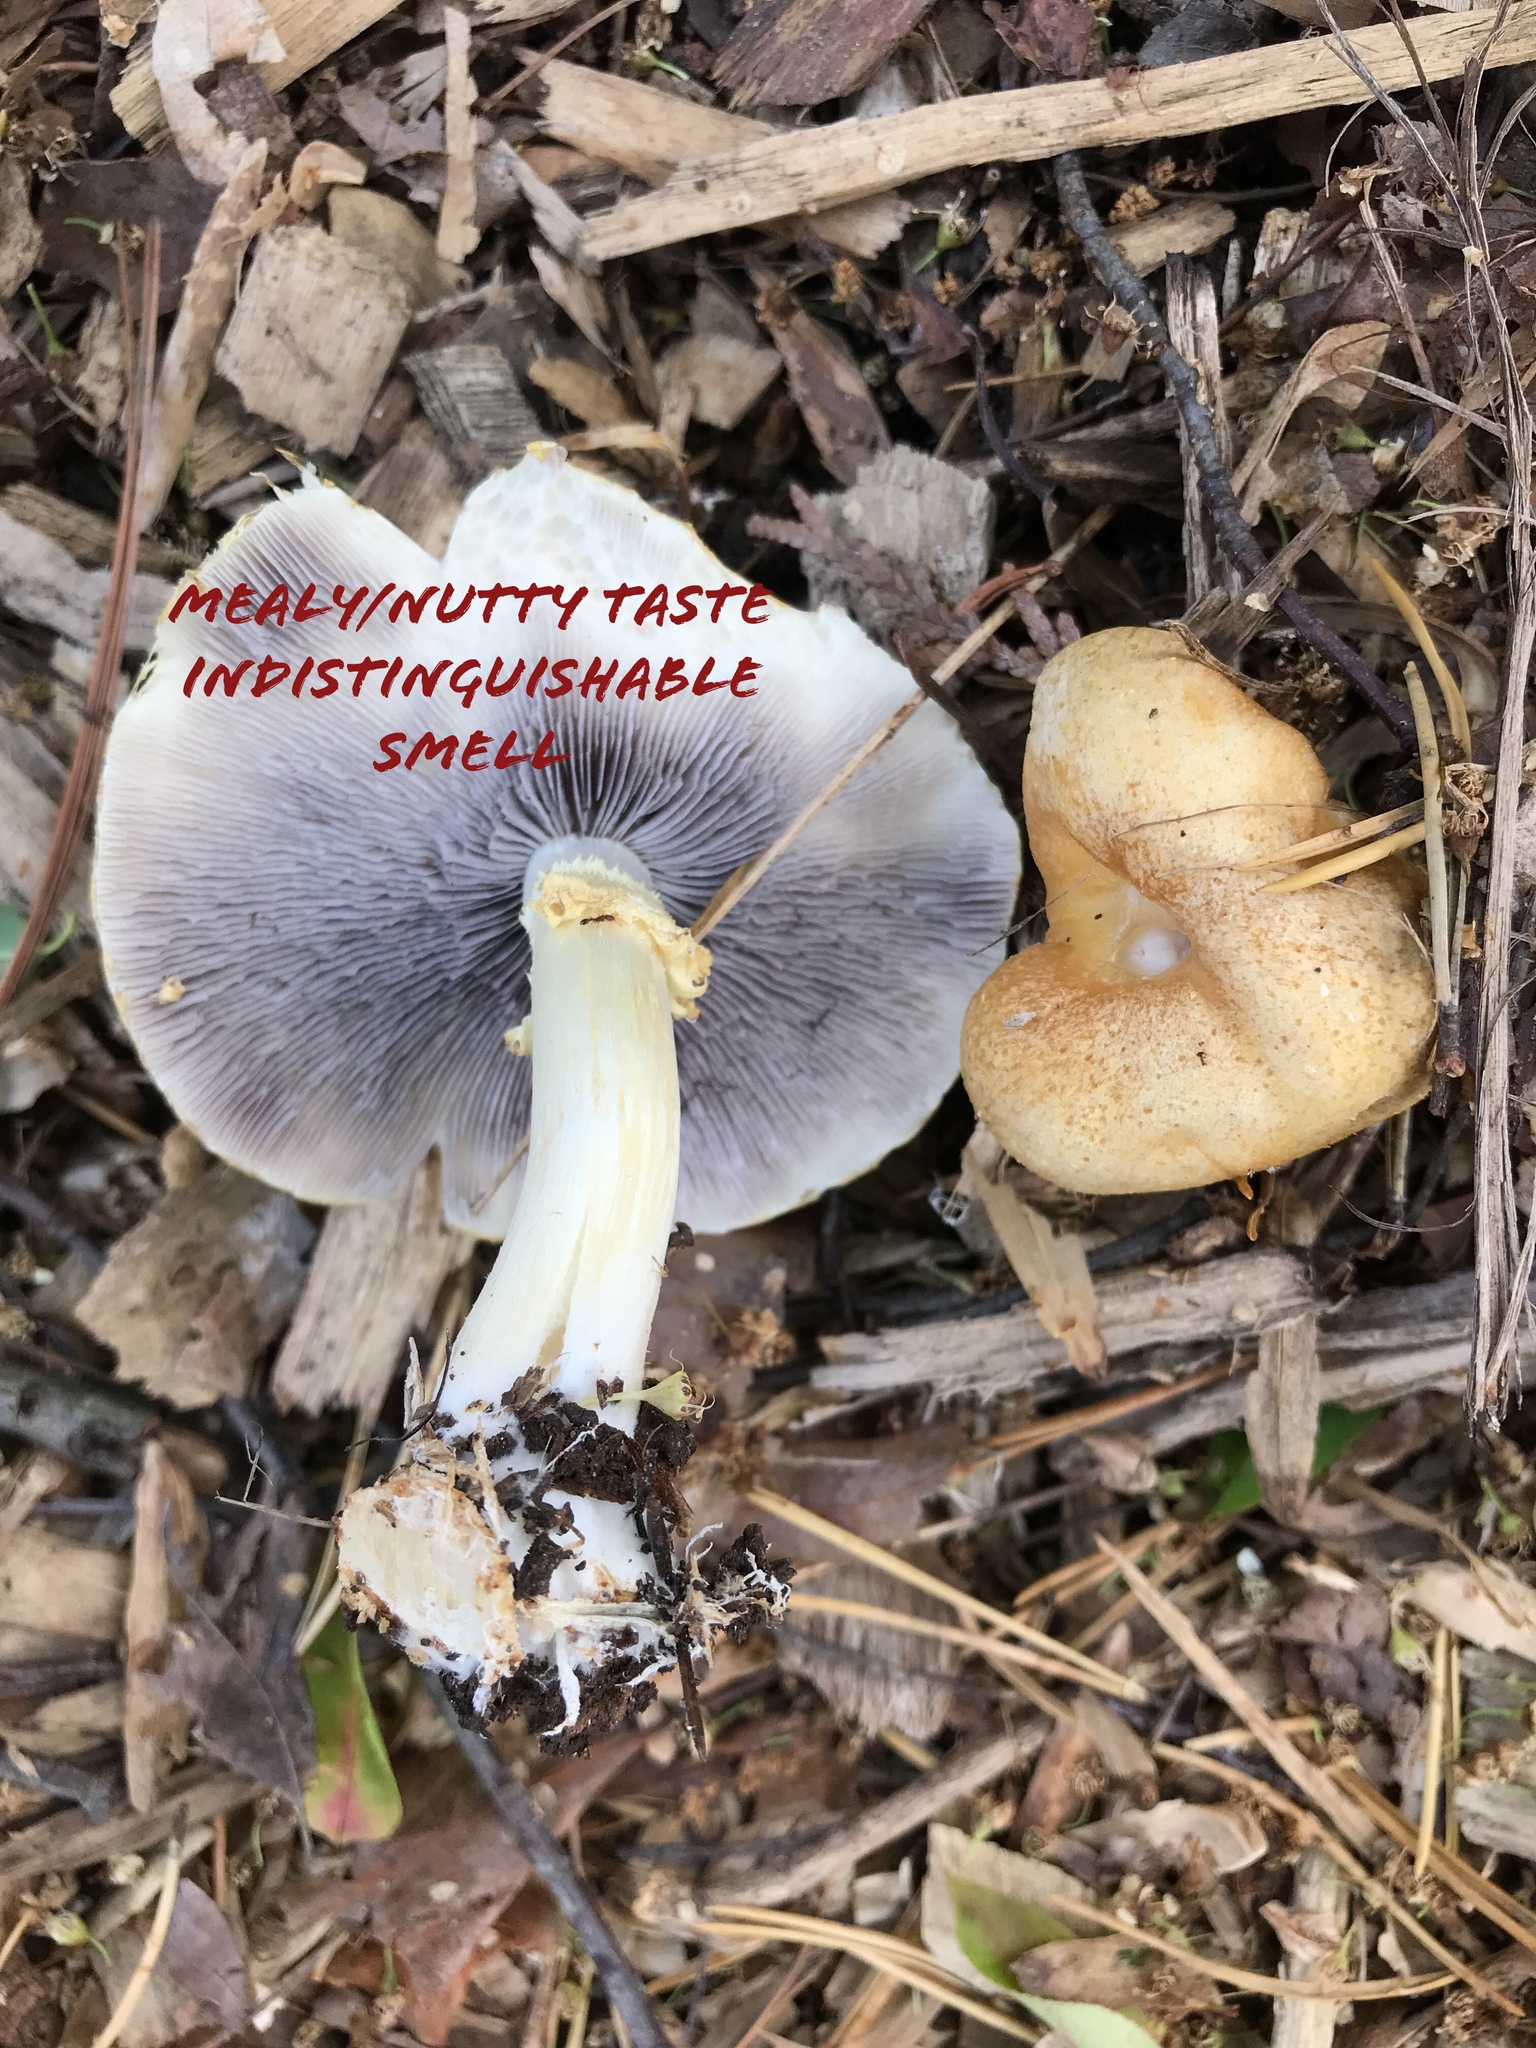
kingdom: Fungi
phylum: Basidiomycota
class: Agaricomycetes
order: Agaricales
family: Strophariaceae
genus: Stropharia
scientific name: Stropharia hardii
